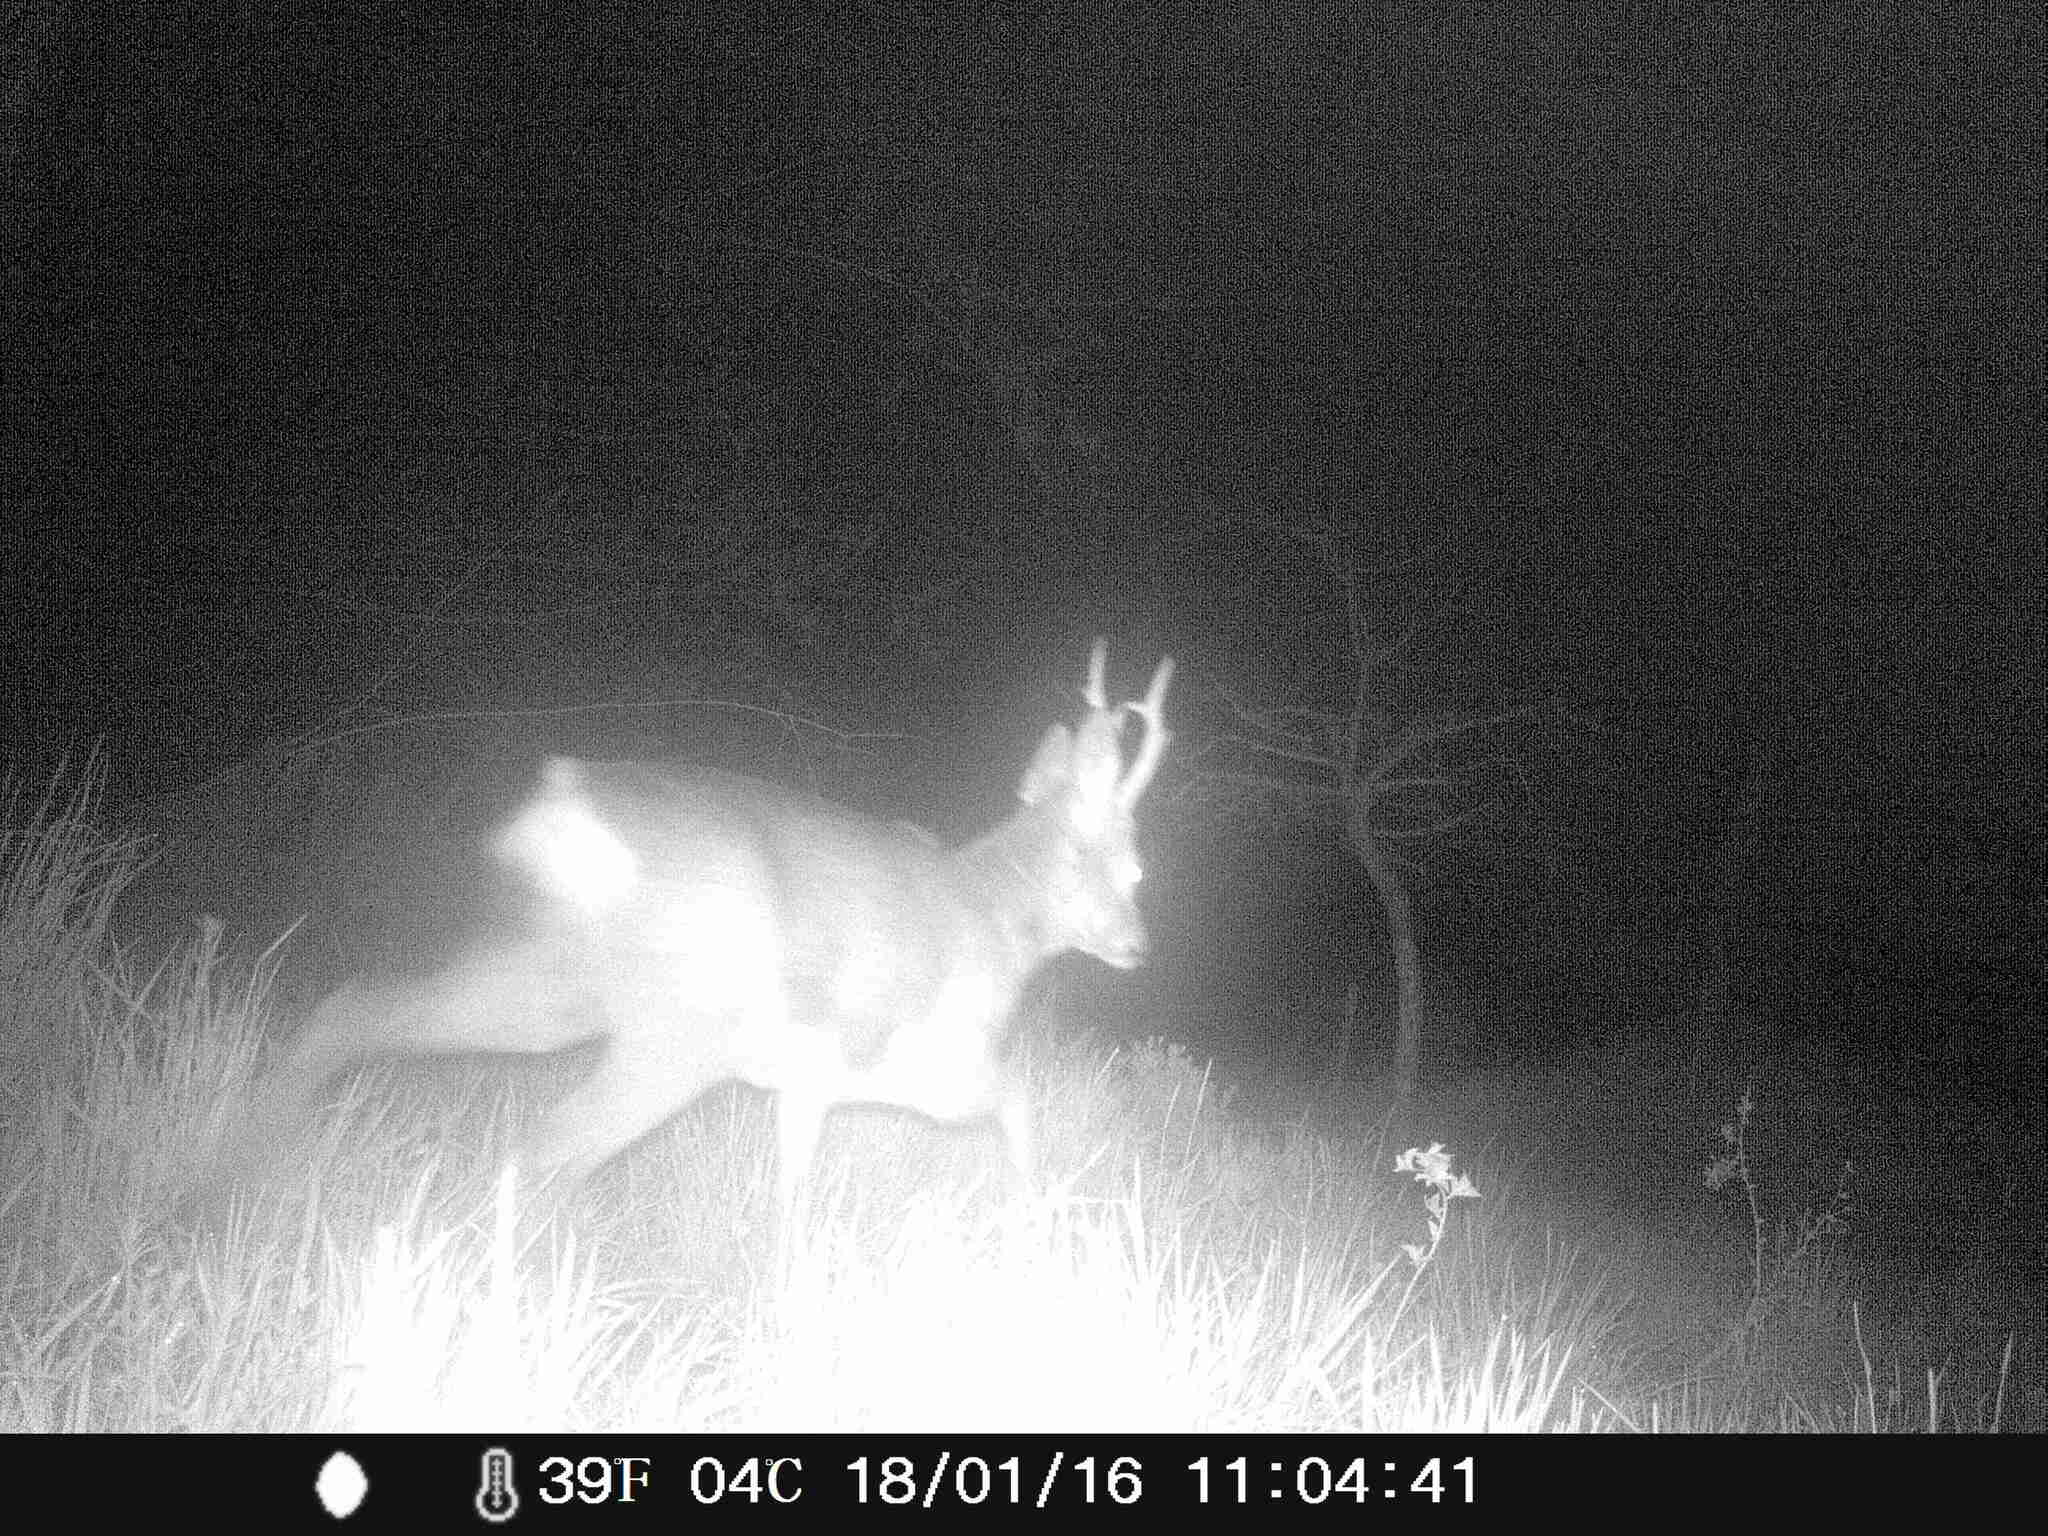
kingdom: Animalia
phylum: Chordata
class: Mammalia
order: Artiodactyla
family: Cervidae
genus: Capreolus
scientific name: Capreolus capreolus
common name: Western roe deer
